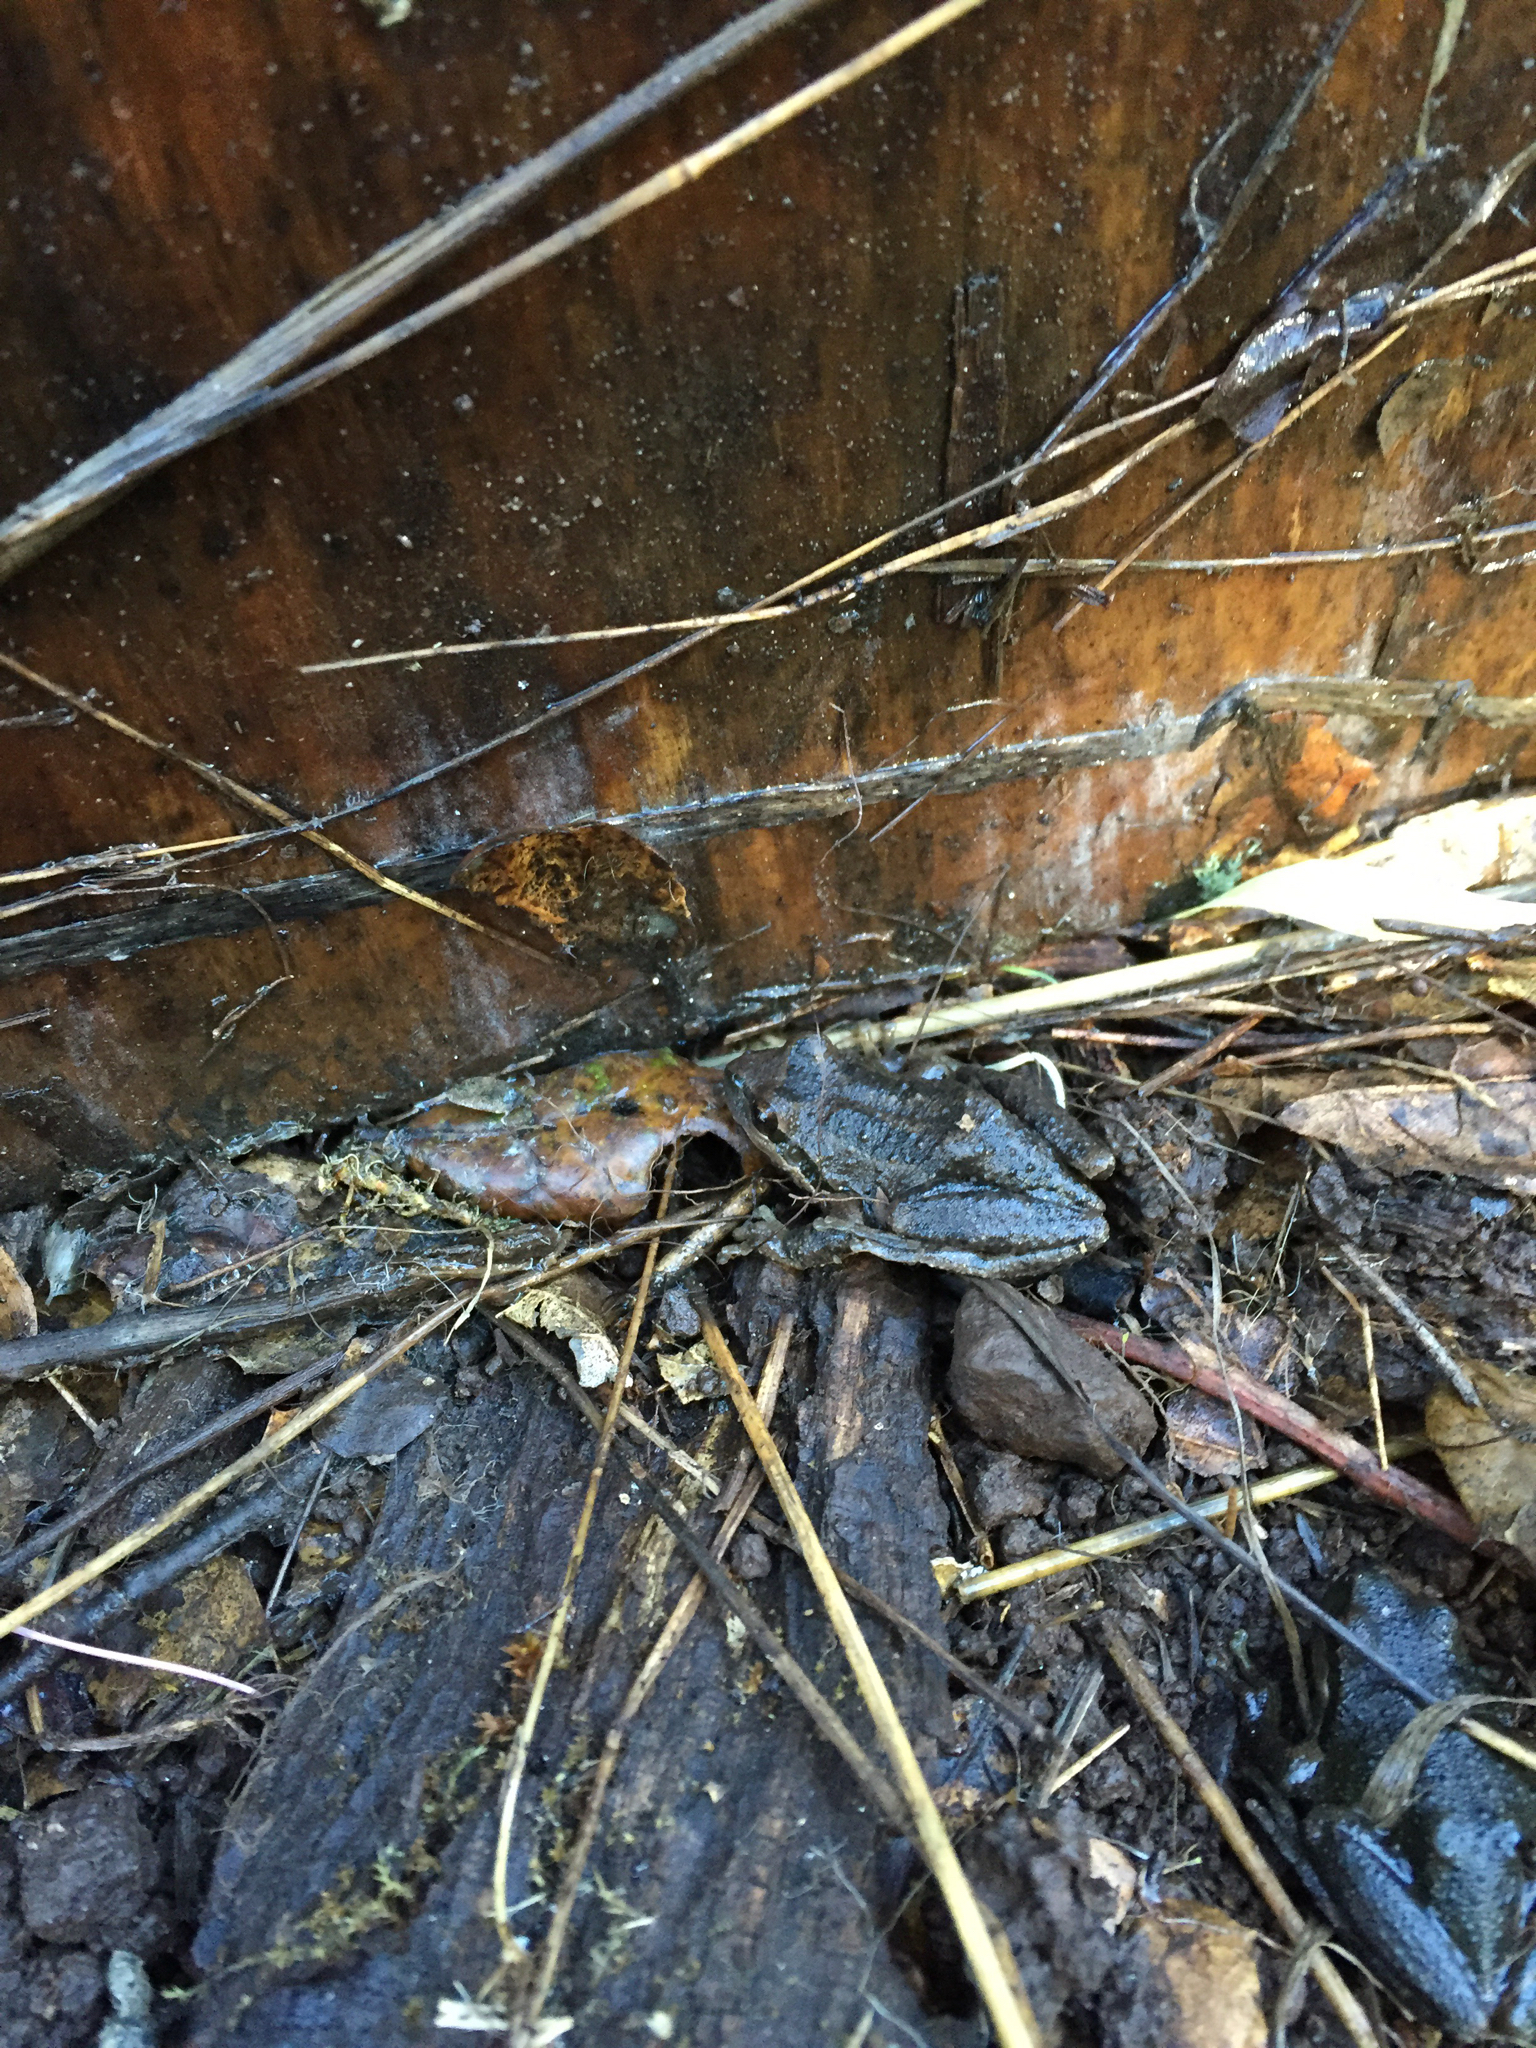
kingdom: Animalia
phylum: Chordata
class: Amphibia
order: Anura
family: Hylidae
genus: Pseudacris
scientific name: Pseudacris regilla
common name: Pacific chorus frog
